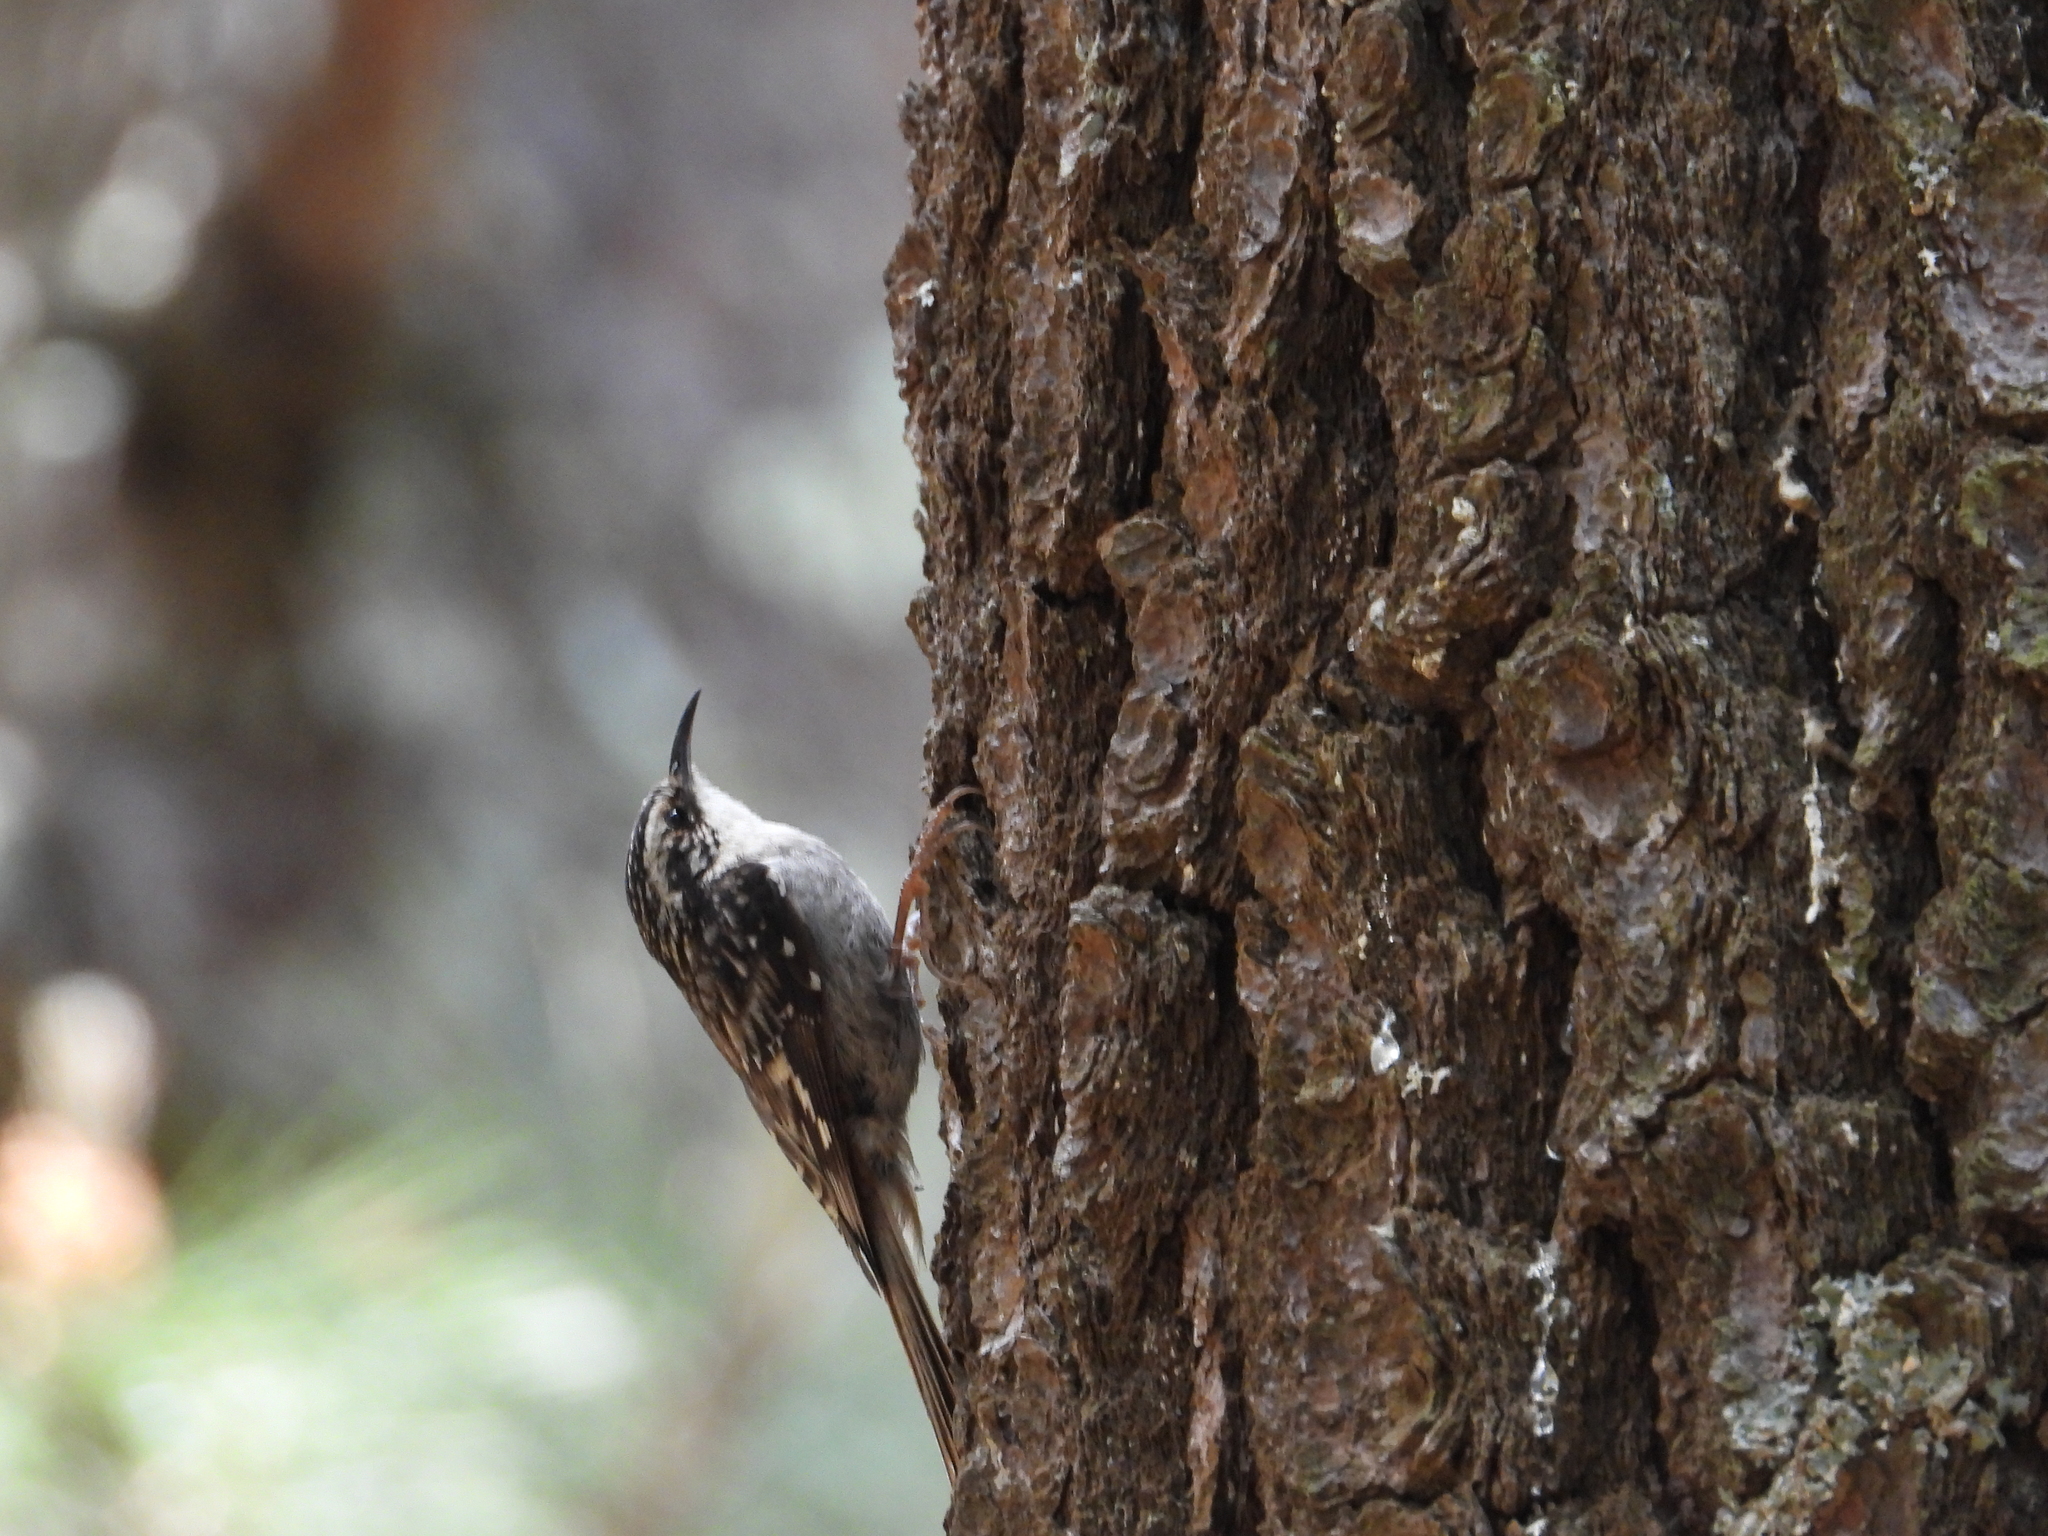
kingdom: Animalia
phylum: Chordata
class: Aves
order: Passeriformes
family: Certhiidae
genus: Certhia
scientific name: Certhia americana
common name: Brown creeper
